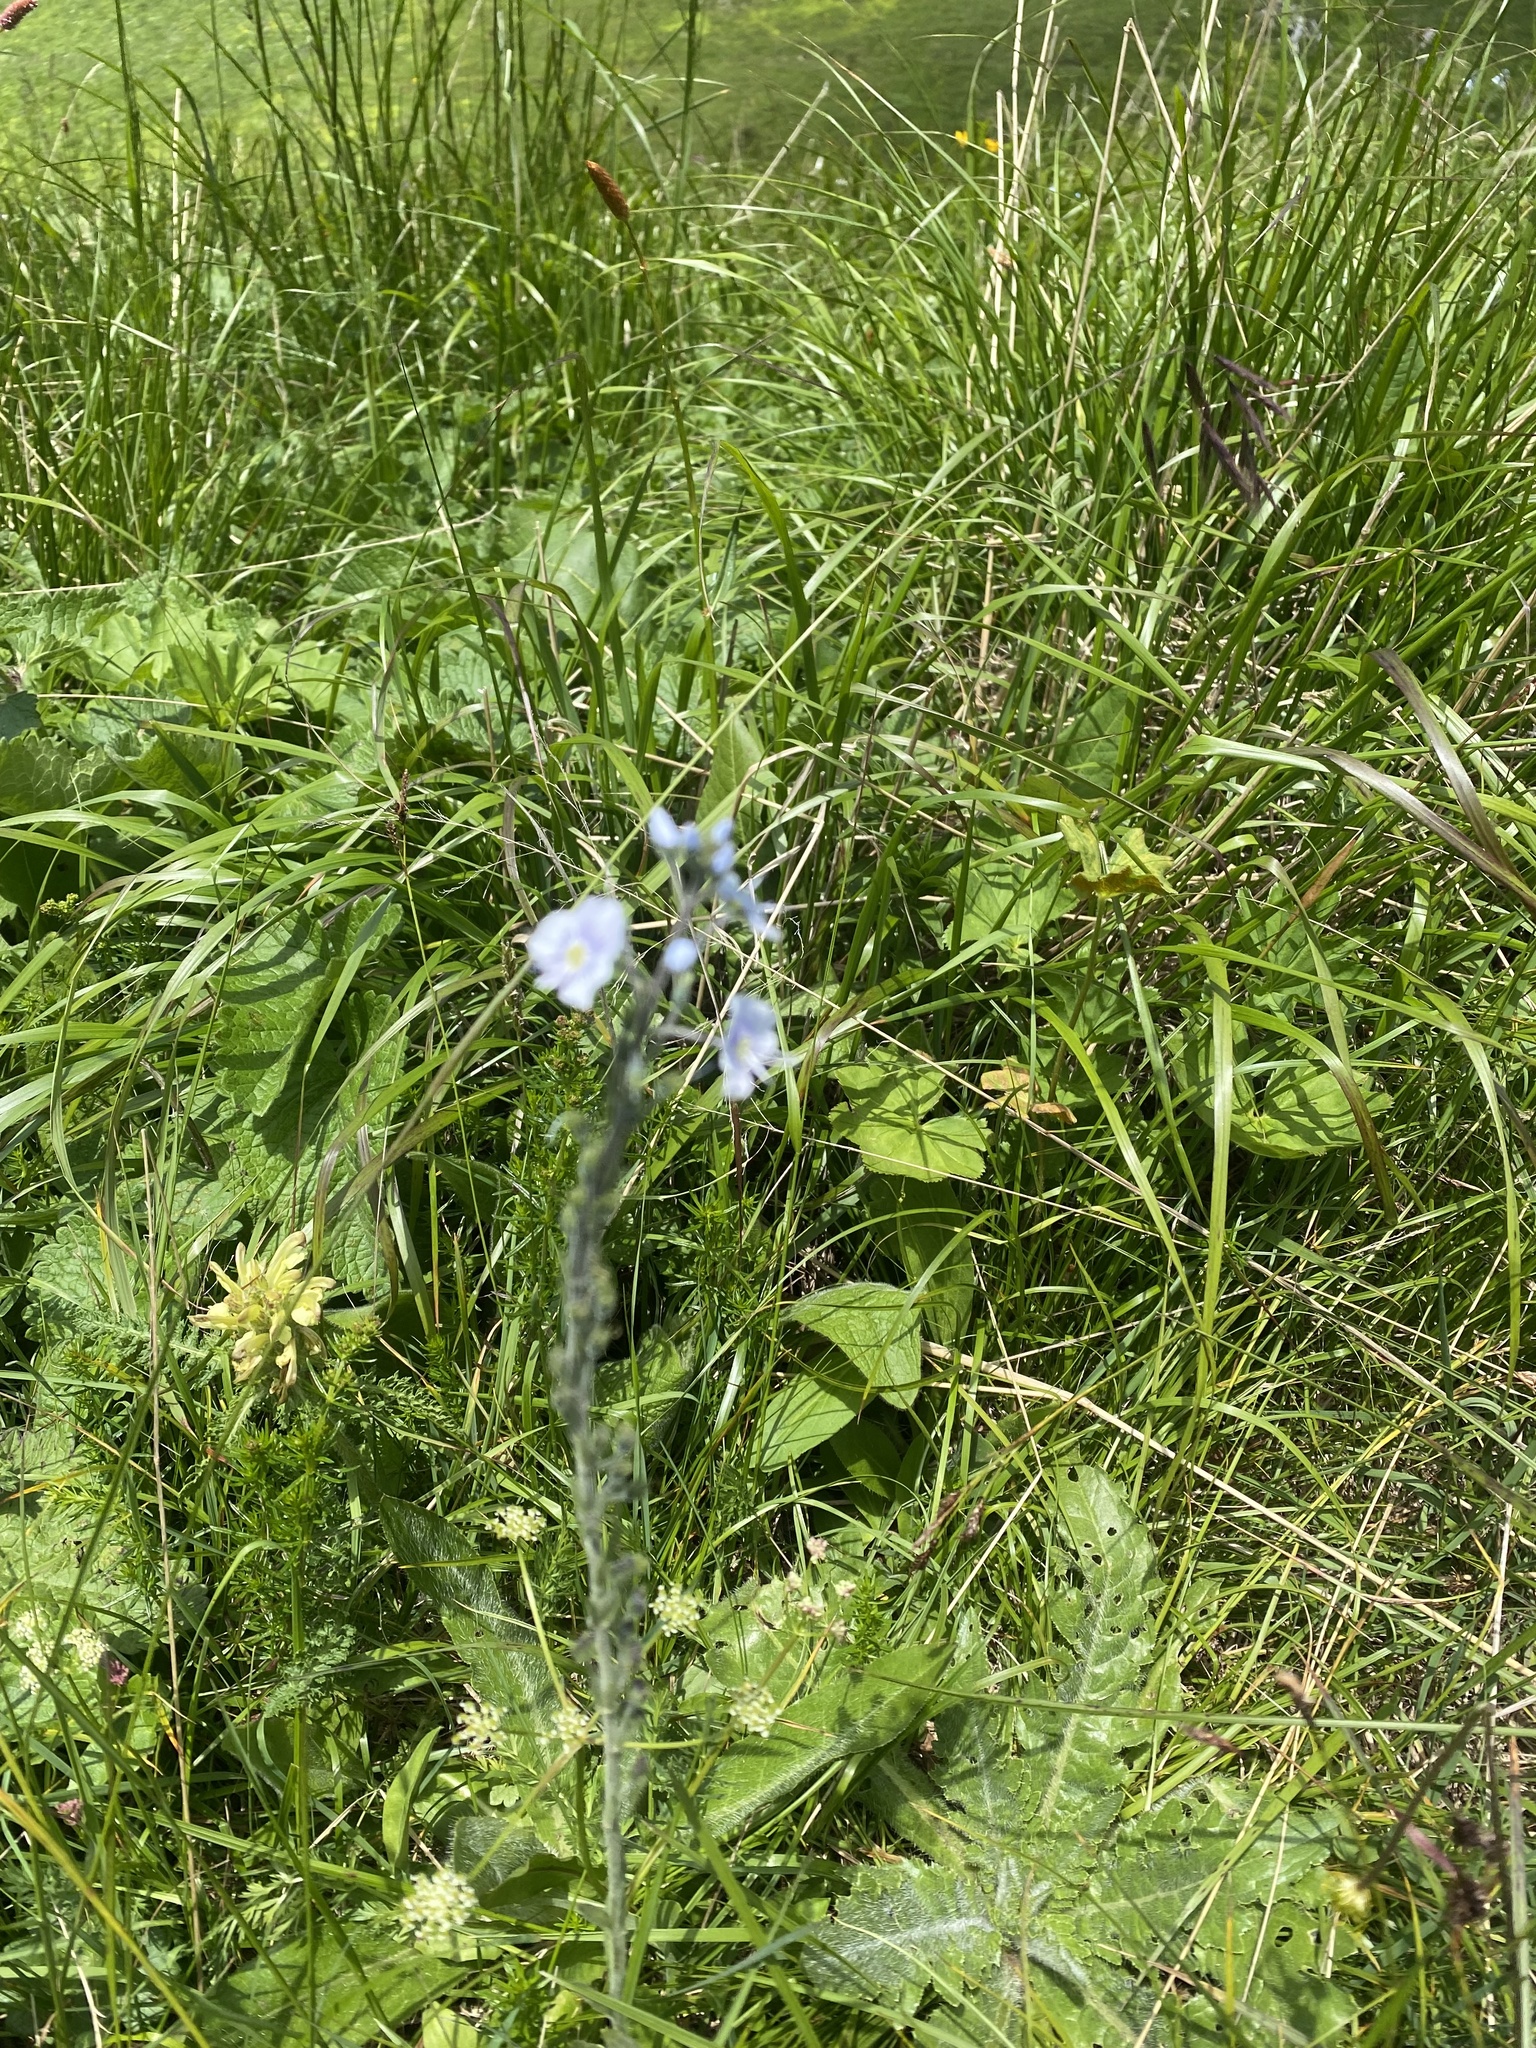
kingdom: Plantae
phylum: Tracheophyta
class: Magnoliopsida
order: Lamiales
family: Plantaginaceae
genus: Veronica
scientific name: Veronica gentianoides
